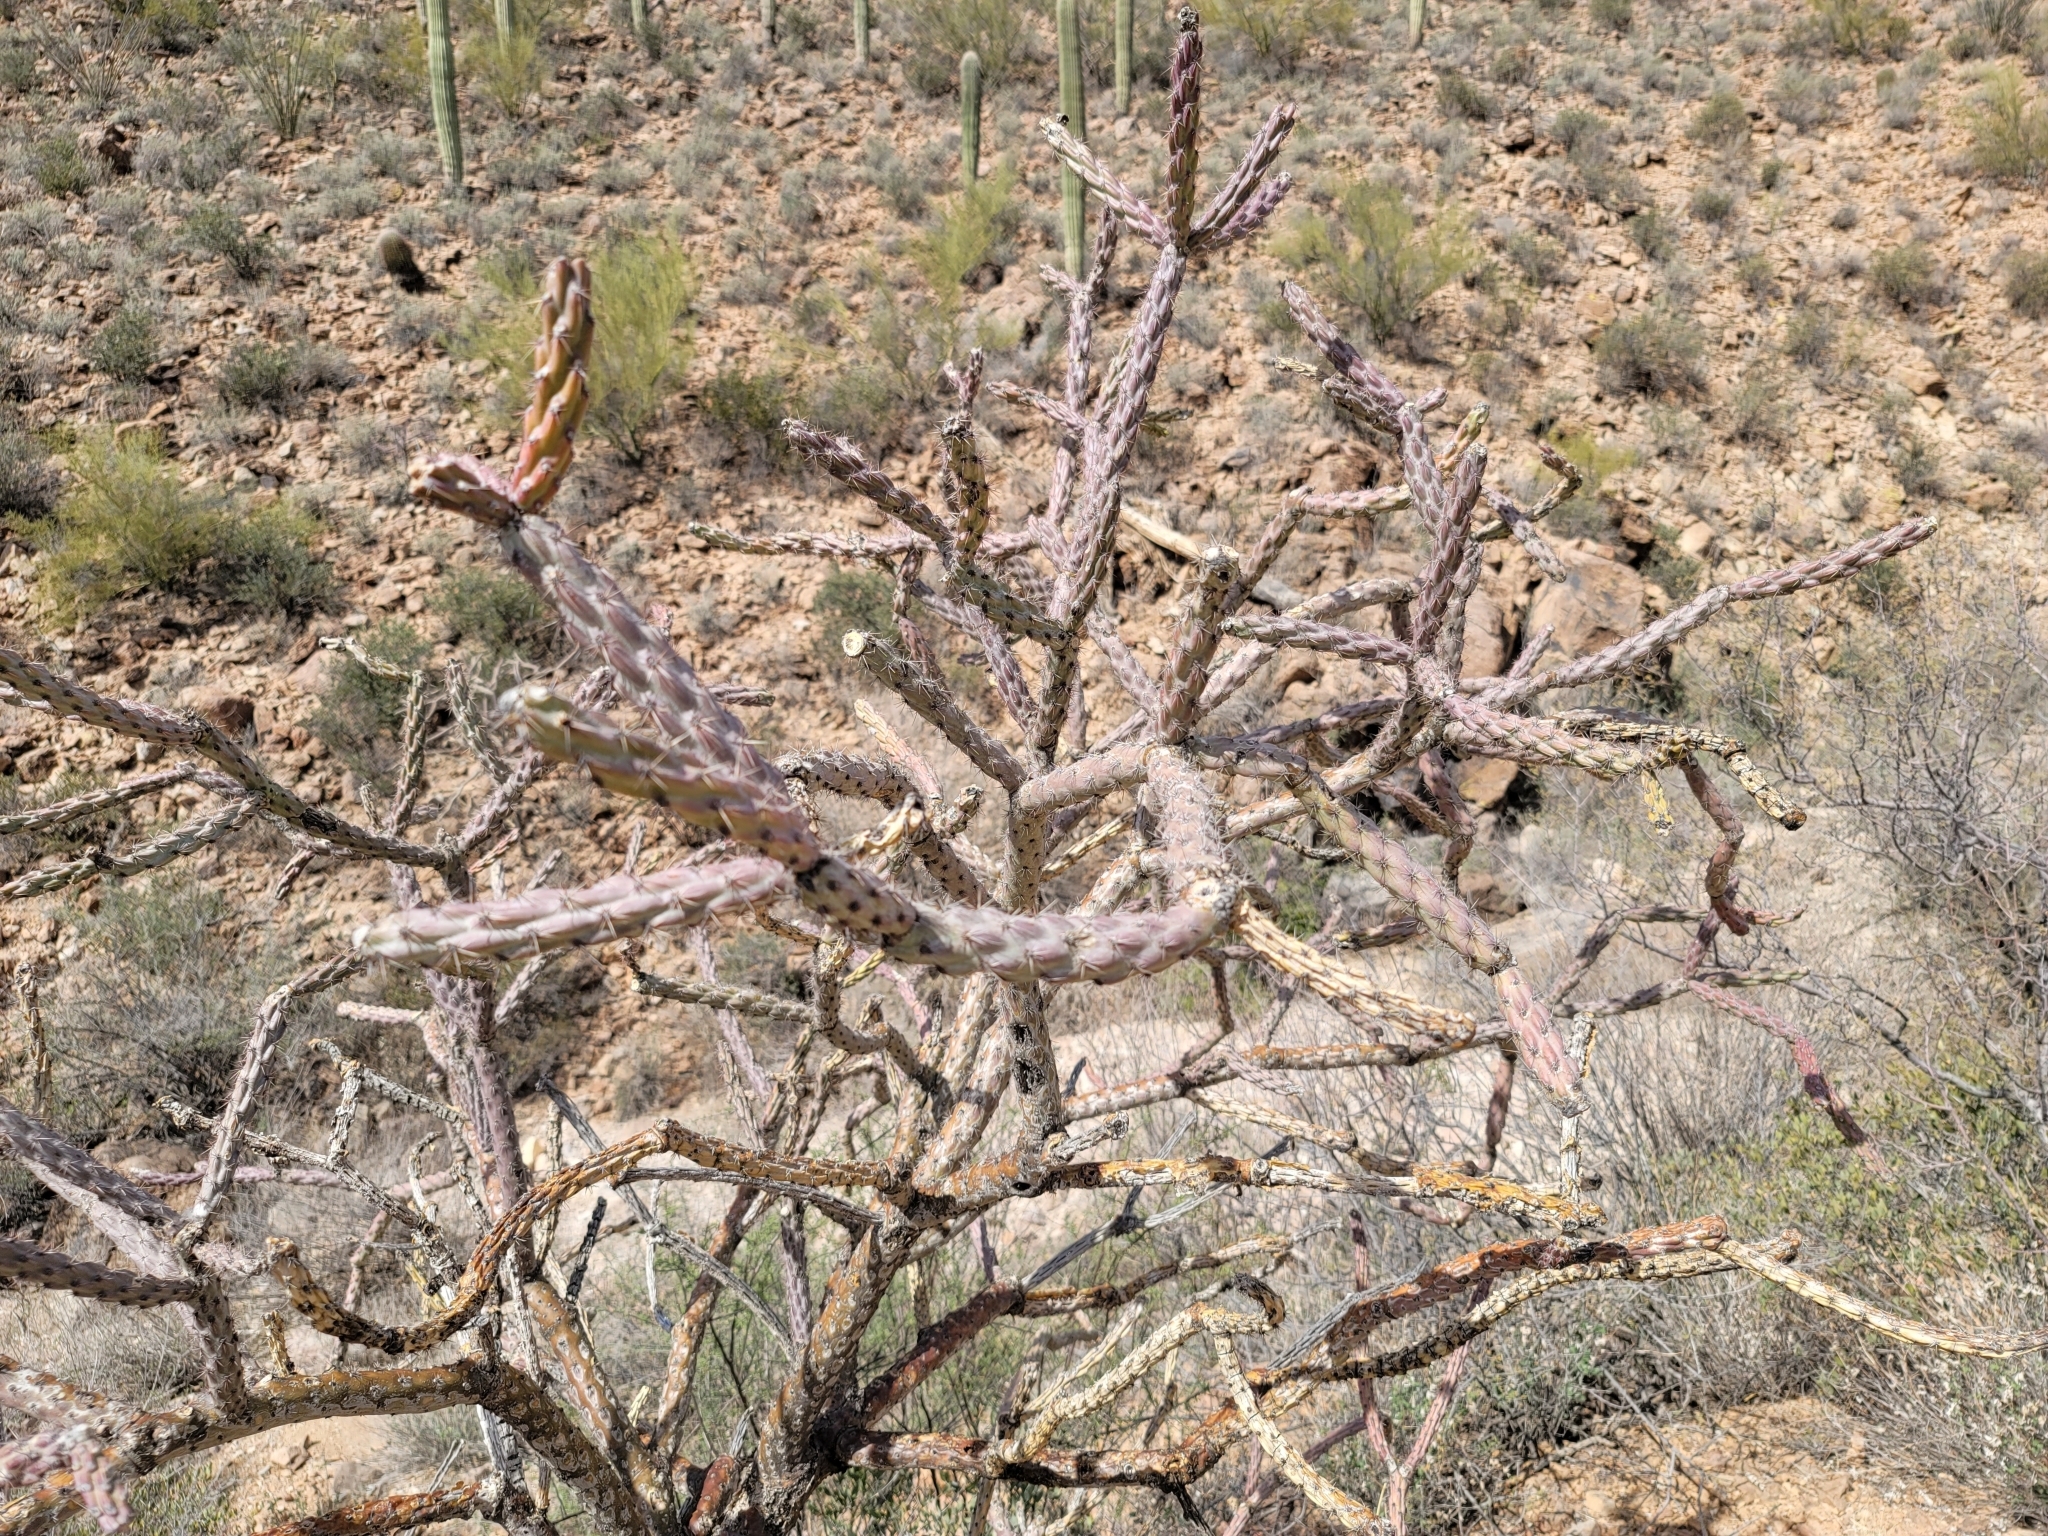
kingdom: Plantae
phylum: Tracheophyta
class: Magnoliopsida
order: Caryophyllales
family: Cactaceae
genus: Cylindropuntia
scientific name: Cylindropuntia acanthocarpa
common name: Buckhorn cholla
